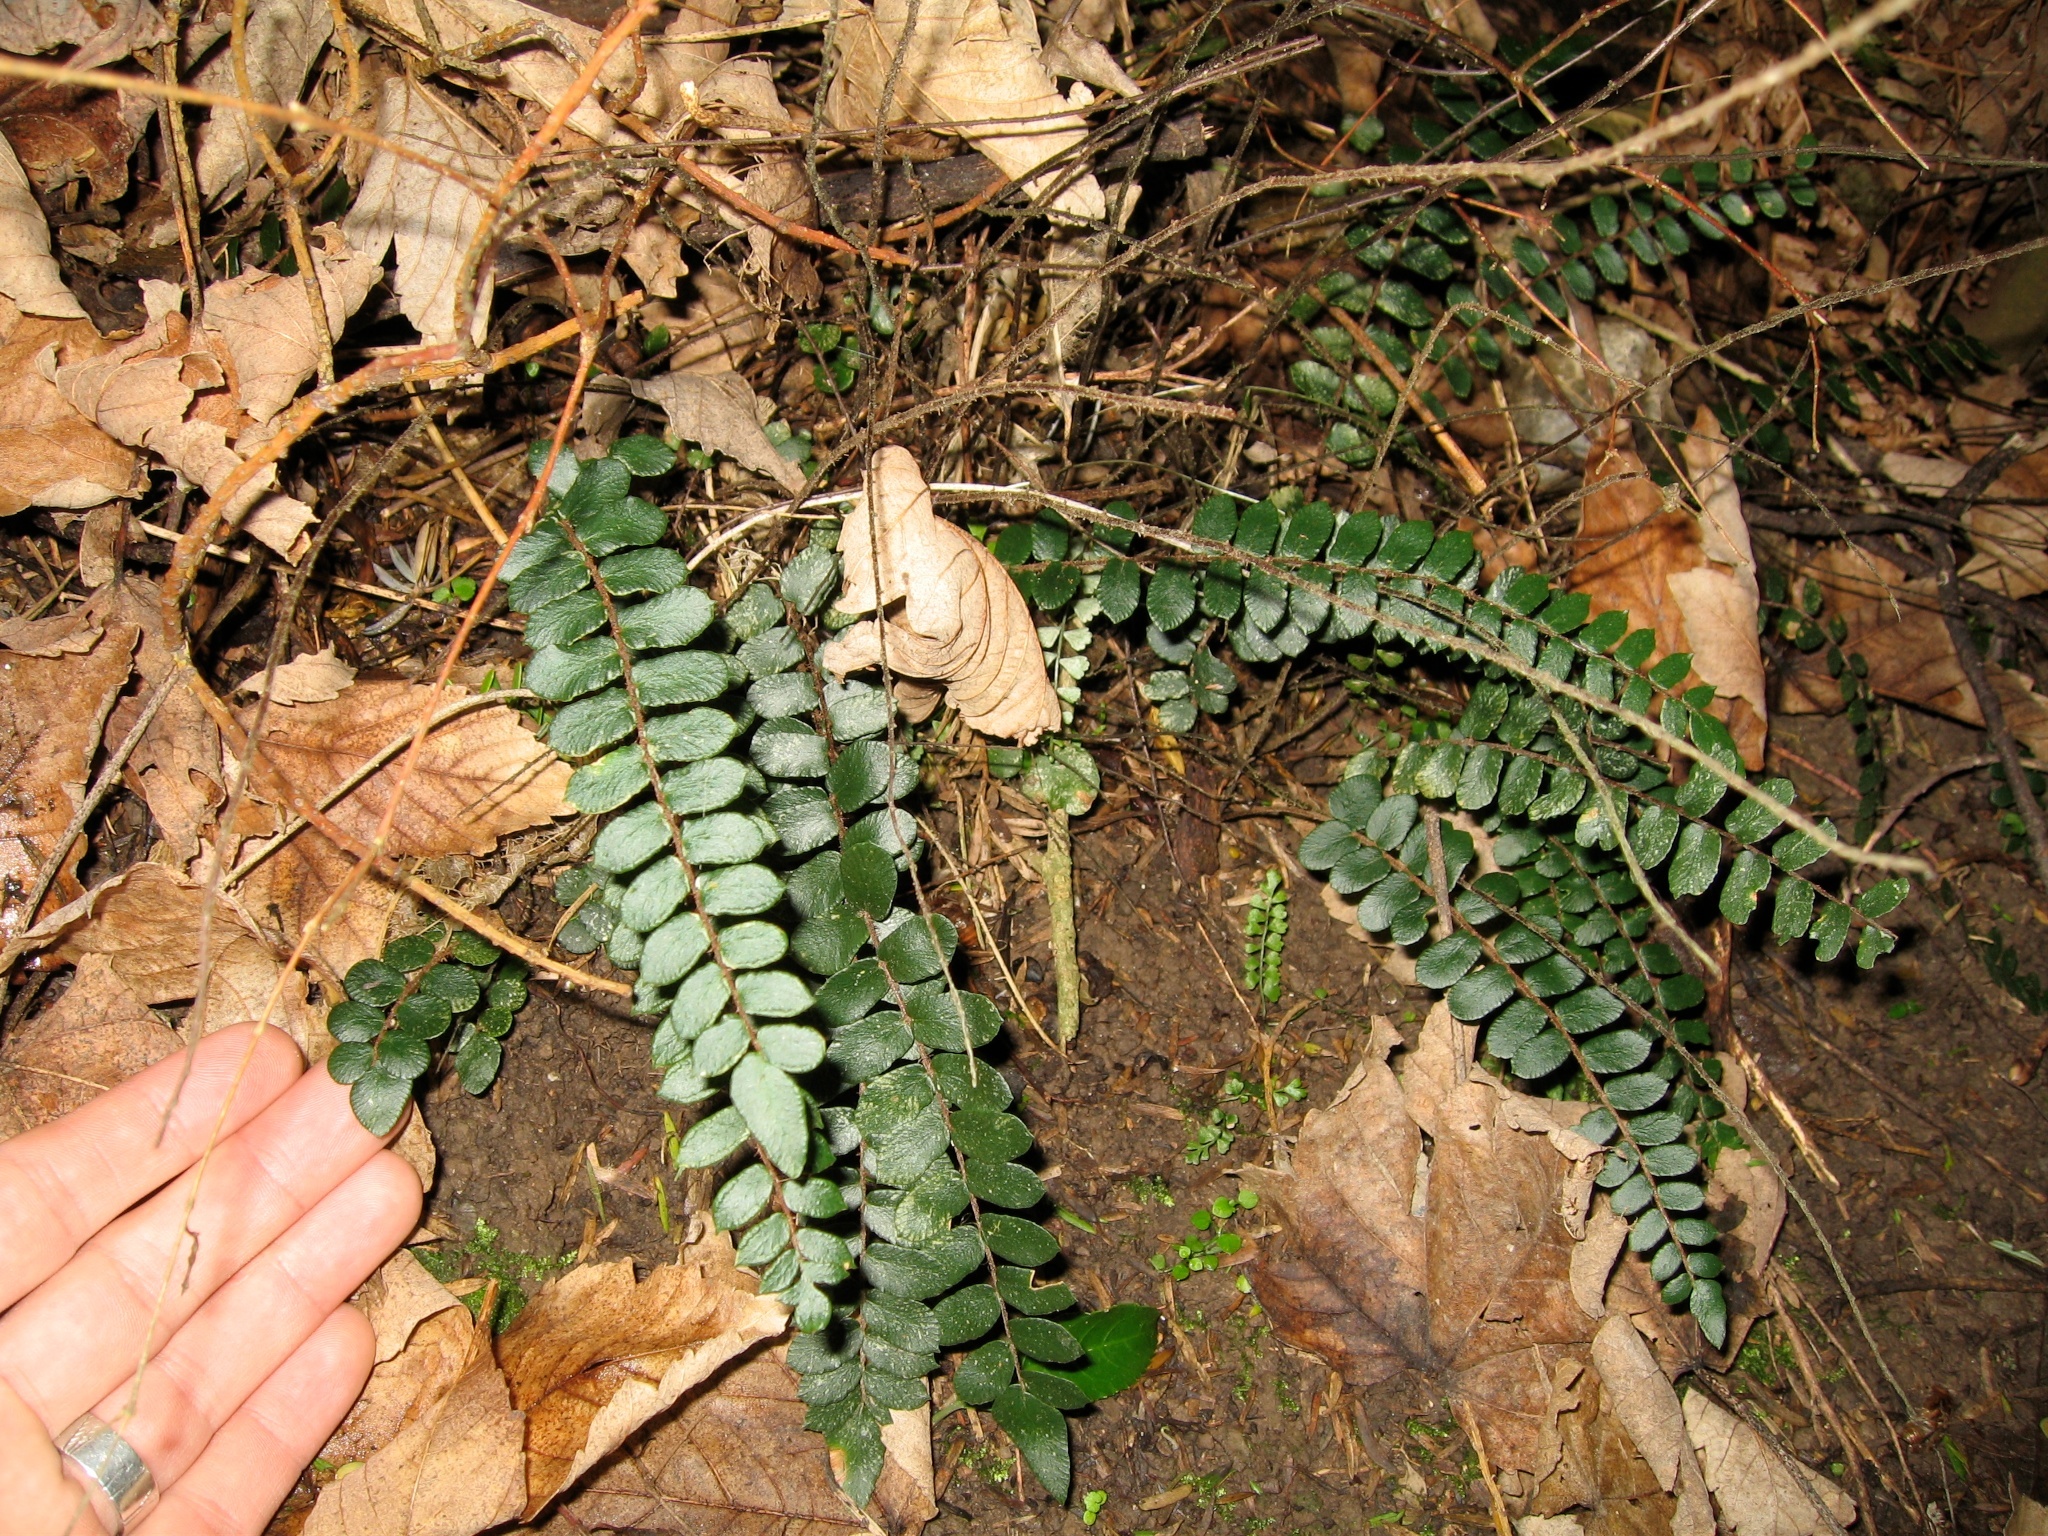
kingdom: Plantae
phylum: Tracheophyta
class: Polypodiopsida
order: Polypodiales
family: Pteridaceae
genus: Pellaea
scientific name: Pellaea rotundifolia
